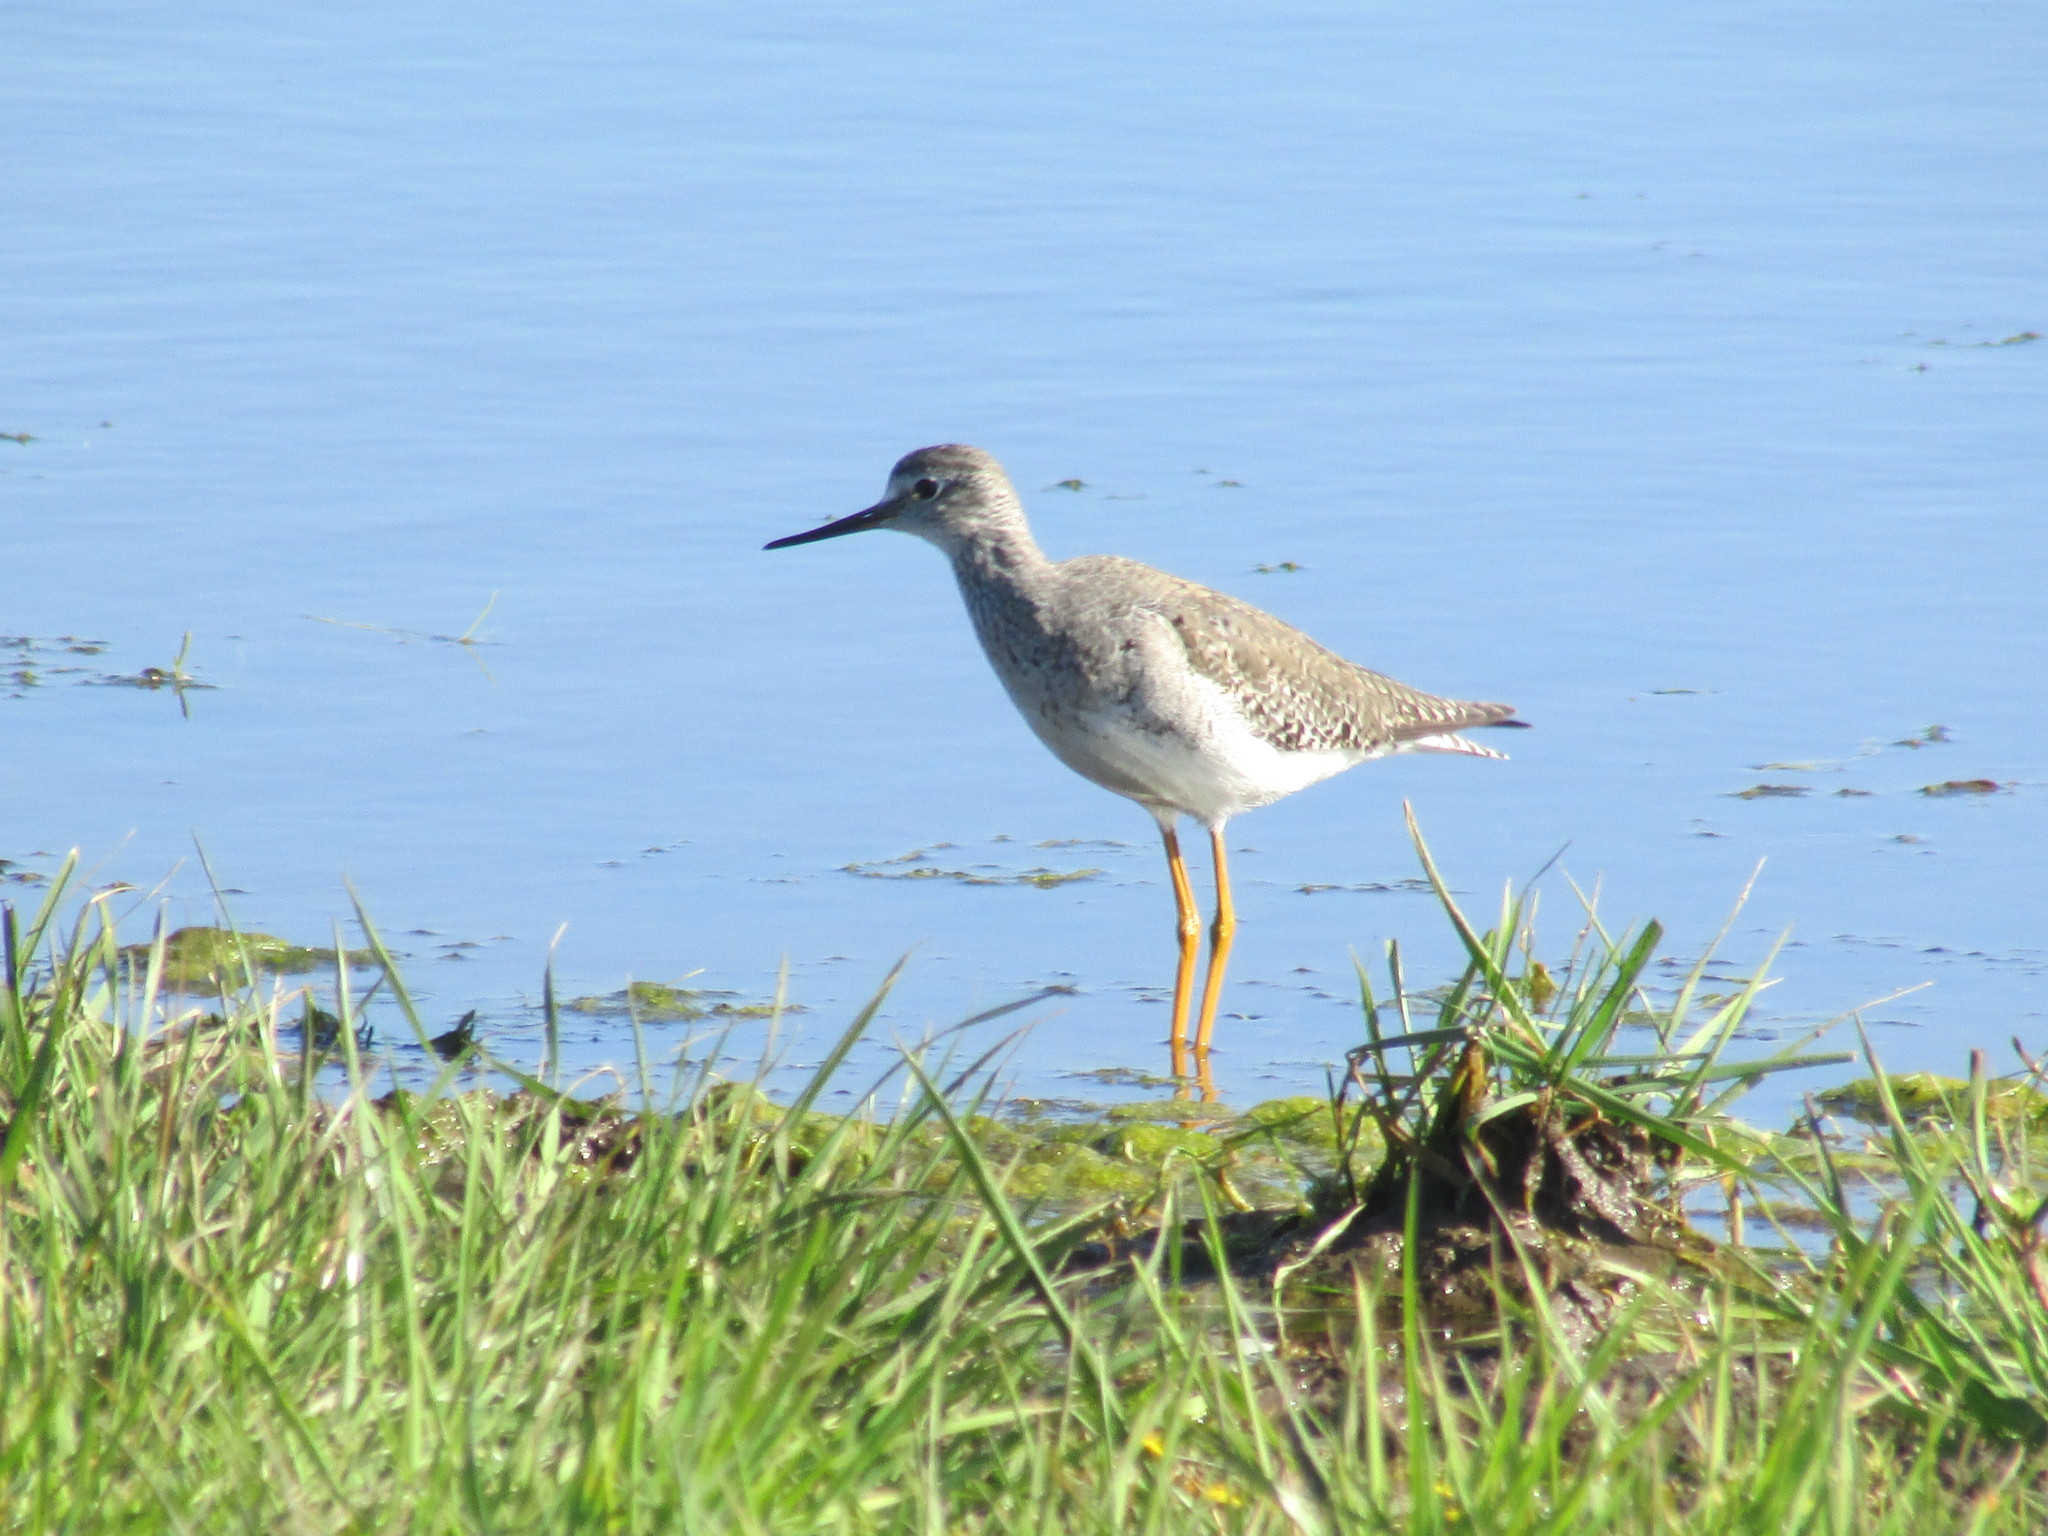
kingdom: Animalia
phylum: Chordata
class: Aves
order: Charadriiformes
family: Scolopacidae
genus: Tringa
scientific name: Tringa melanoleuca
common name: Greater yellowlegs
